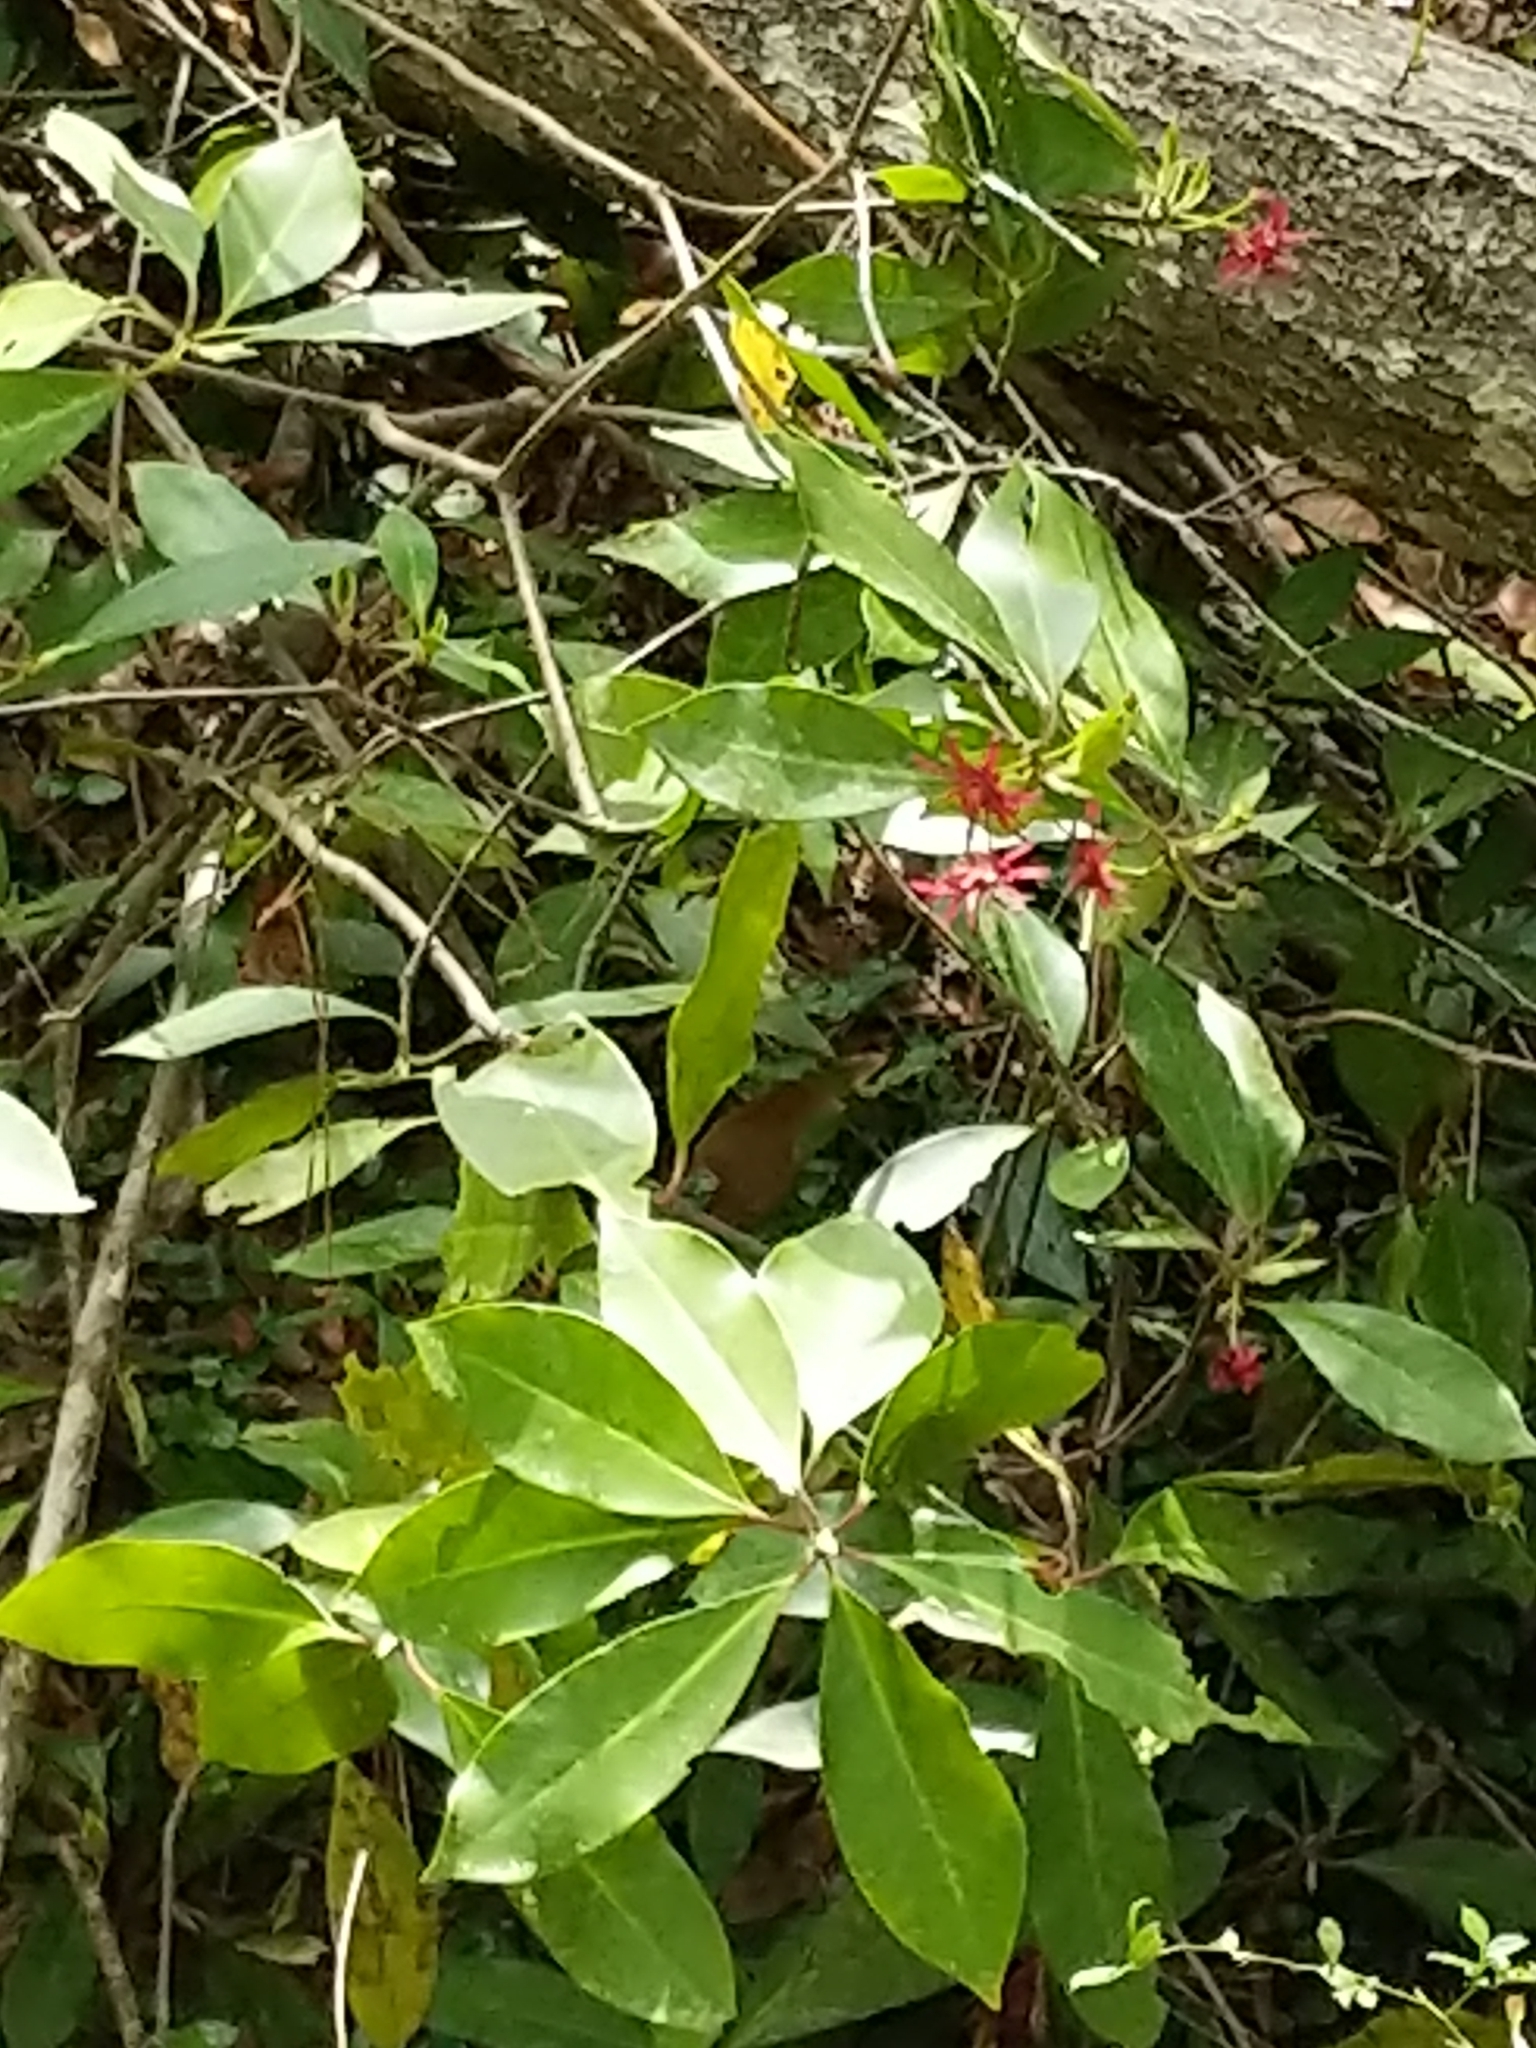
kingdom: Plantae
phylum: Tracheophyta
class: Magnoliopsida
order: Austrobaileyales
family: Schisandraceae
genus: Illicium
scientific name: Illicium floridanum
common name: Florida anisetree
